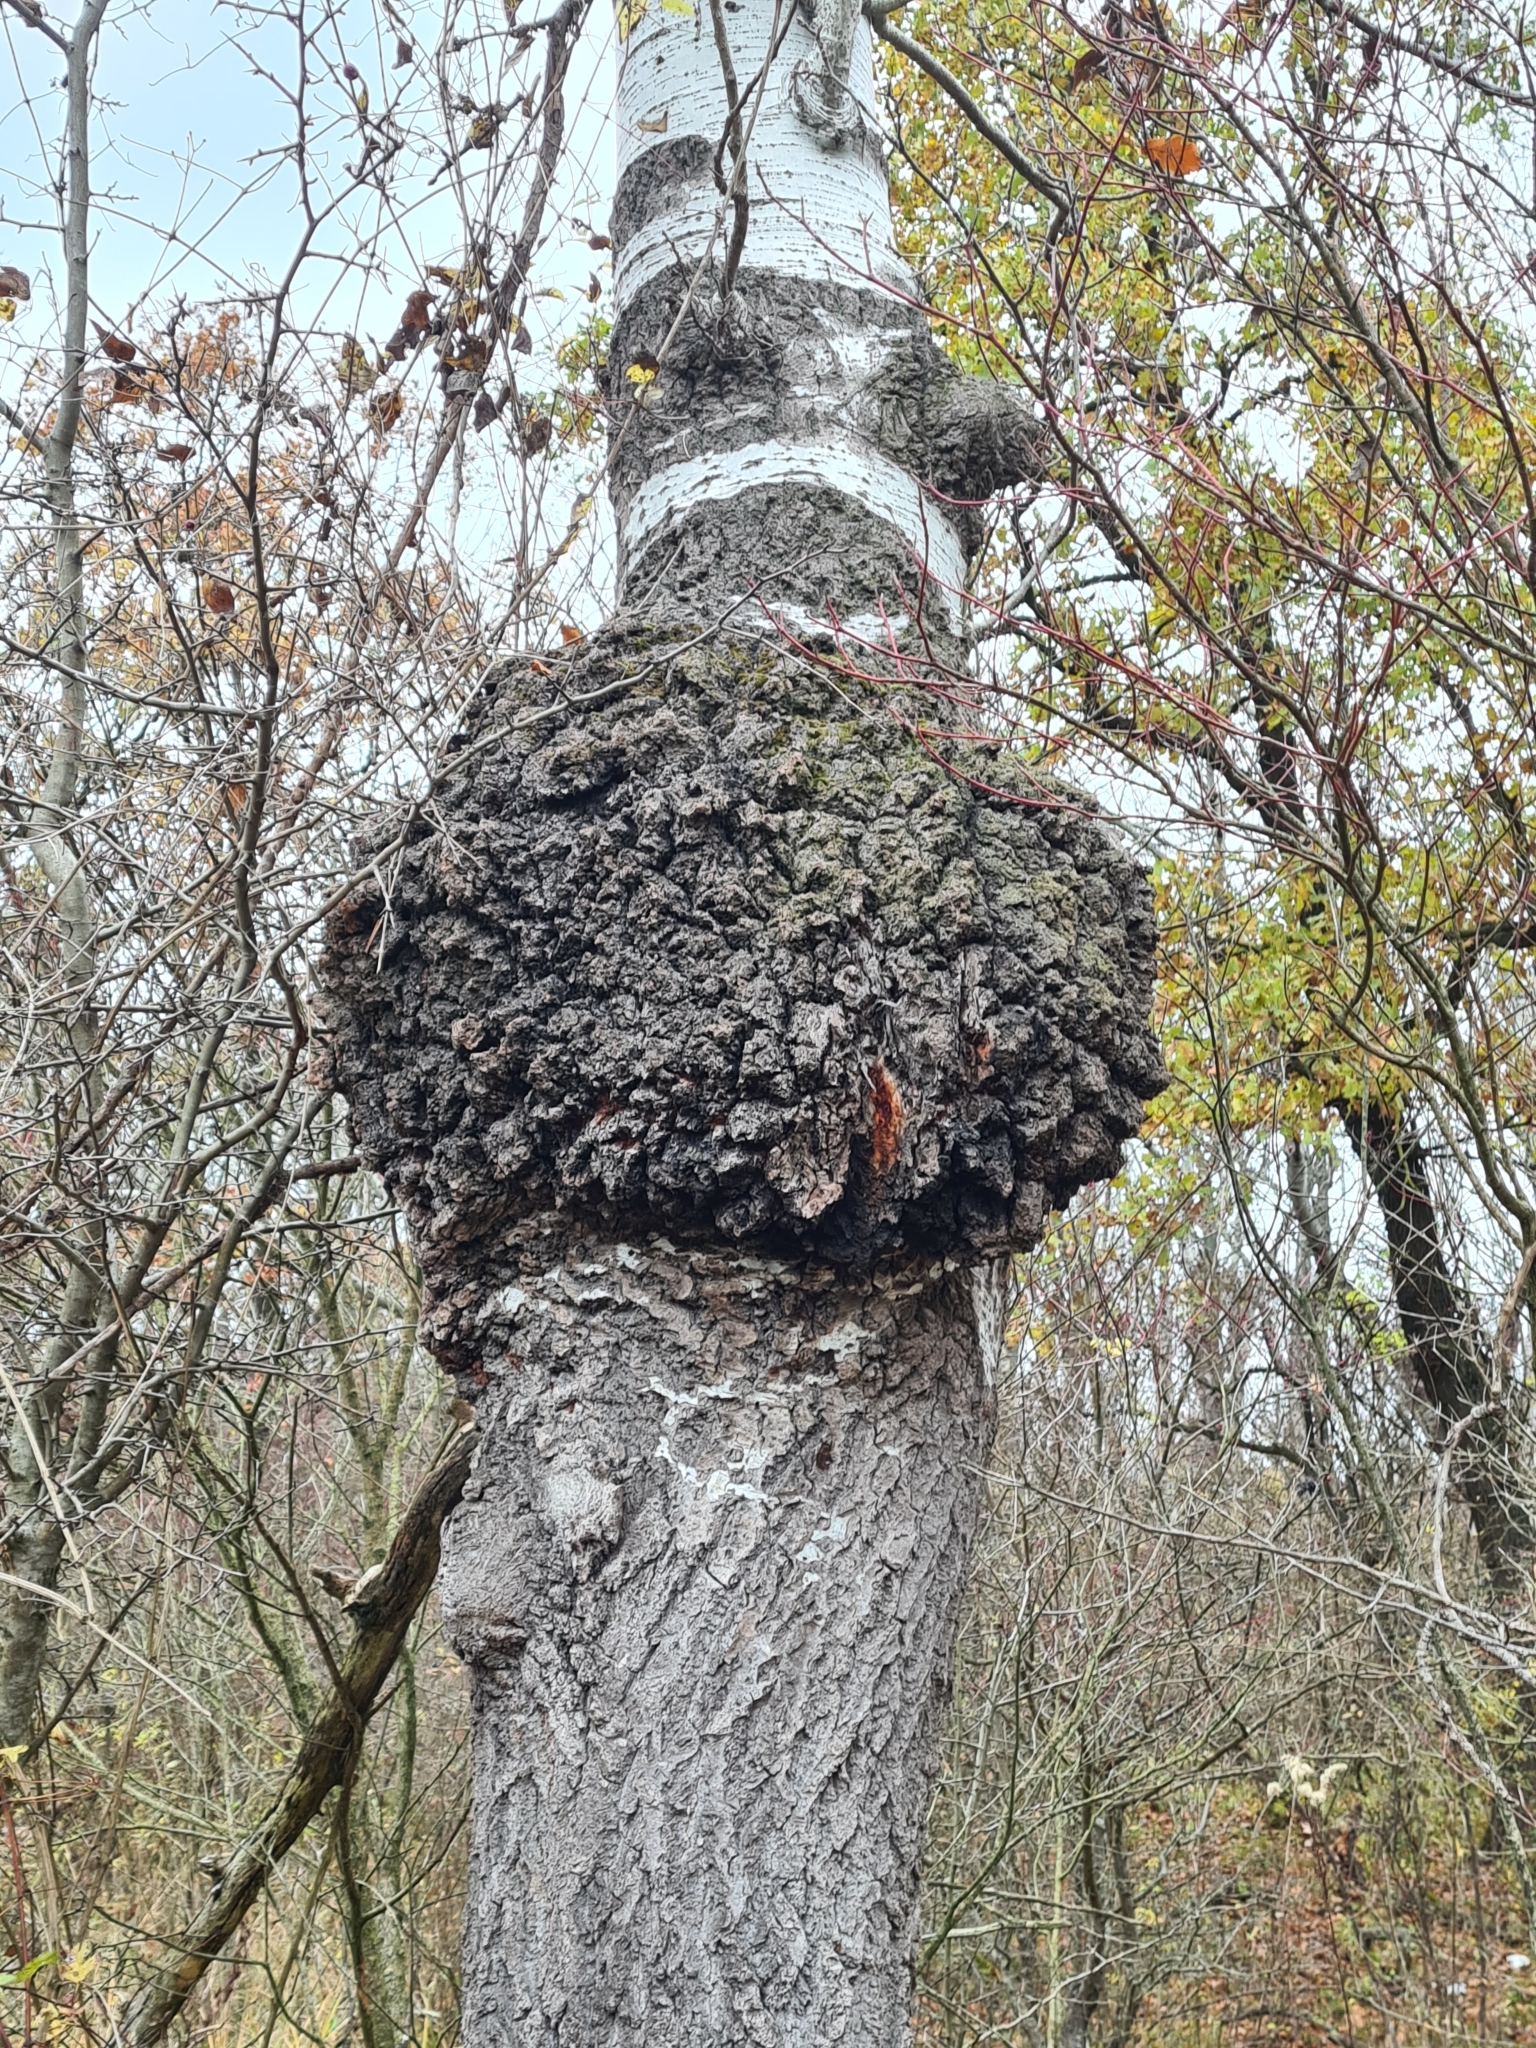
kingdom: Bacteria
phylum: Proteobacteria
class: Alphaproteobacteria
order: Rhizobiales
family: Rhizobiaceae
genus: Rhizobium
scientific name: Rhizobium Agrobacterium radiobacter
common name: Bacterial crown gall
